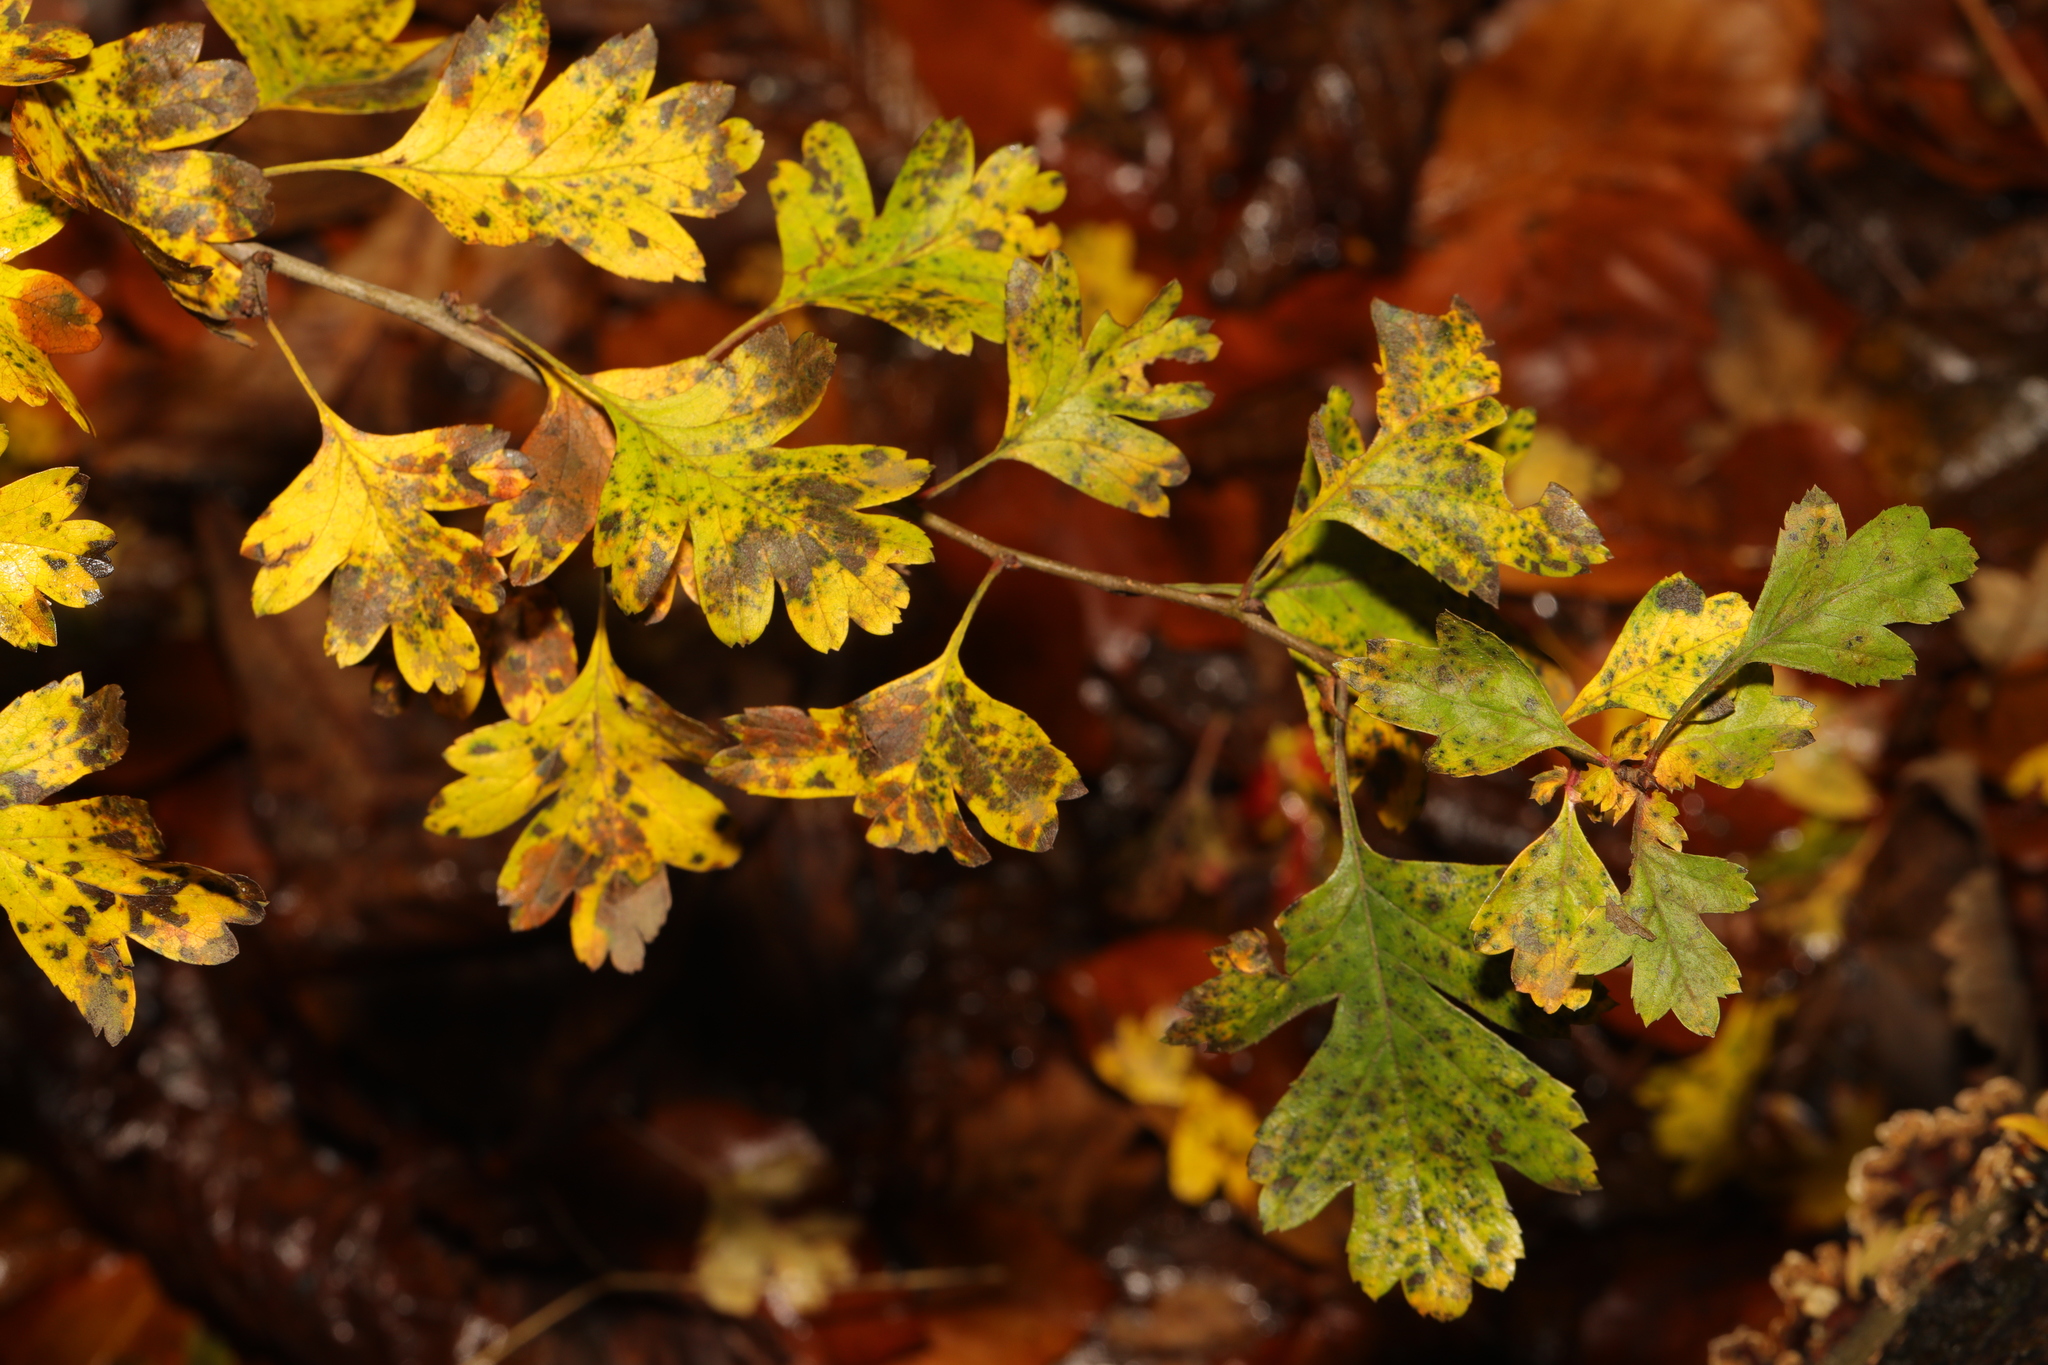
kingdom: Plantae
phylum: Tracheophyta
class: Magnoliopsida
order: Rosales
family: Rosaceae
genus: Crataegus
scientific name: Crataegus monogyna
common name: Hawthorn
